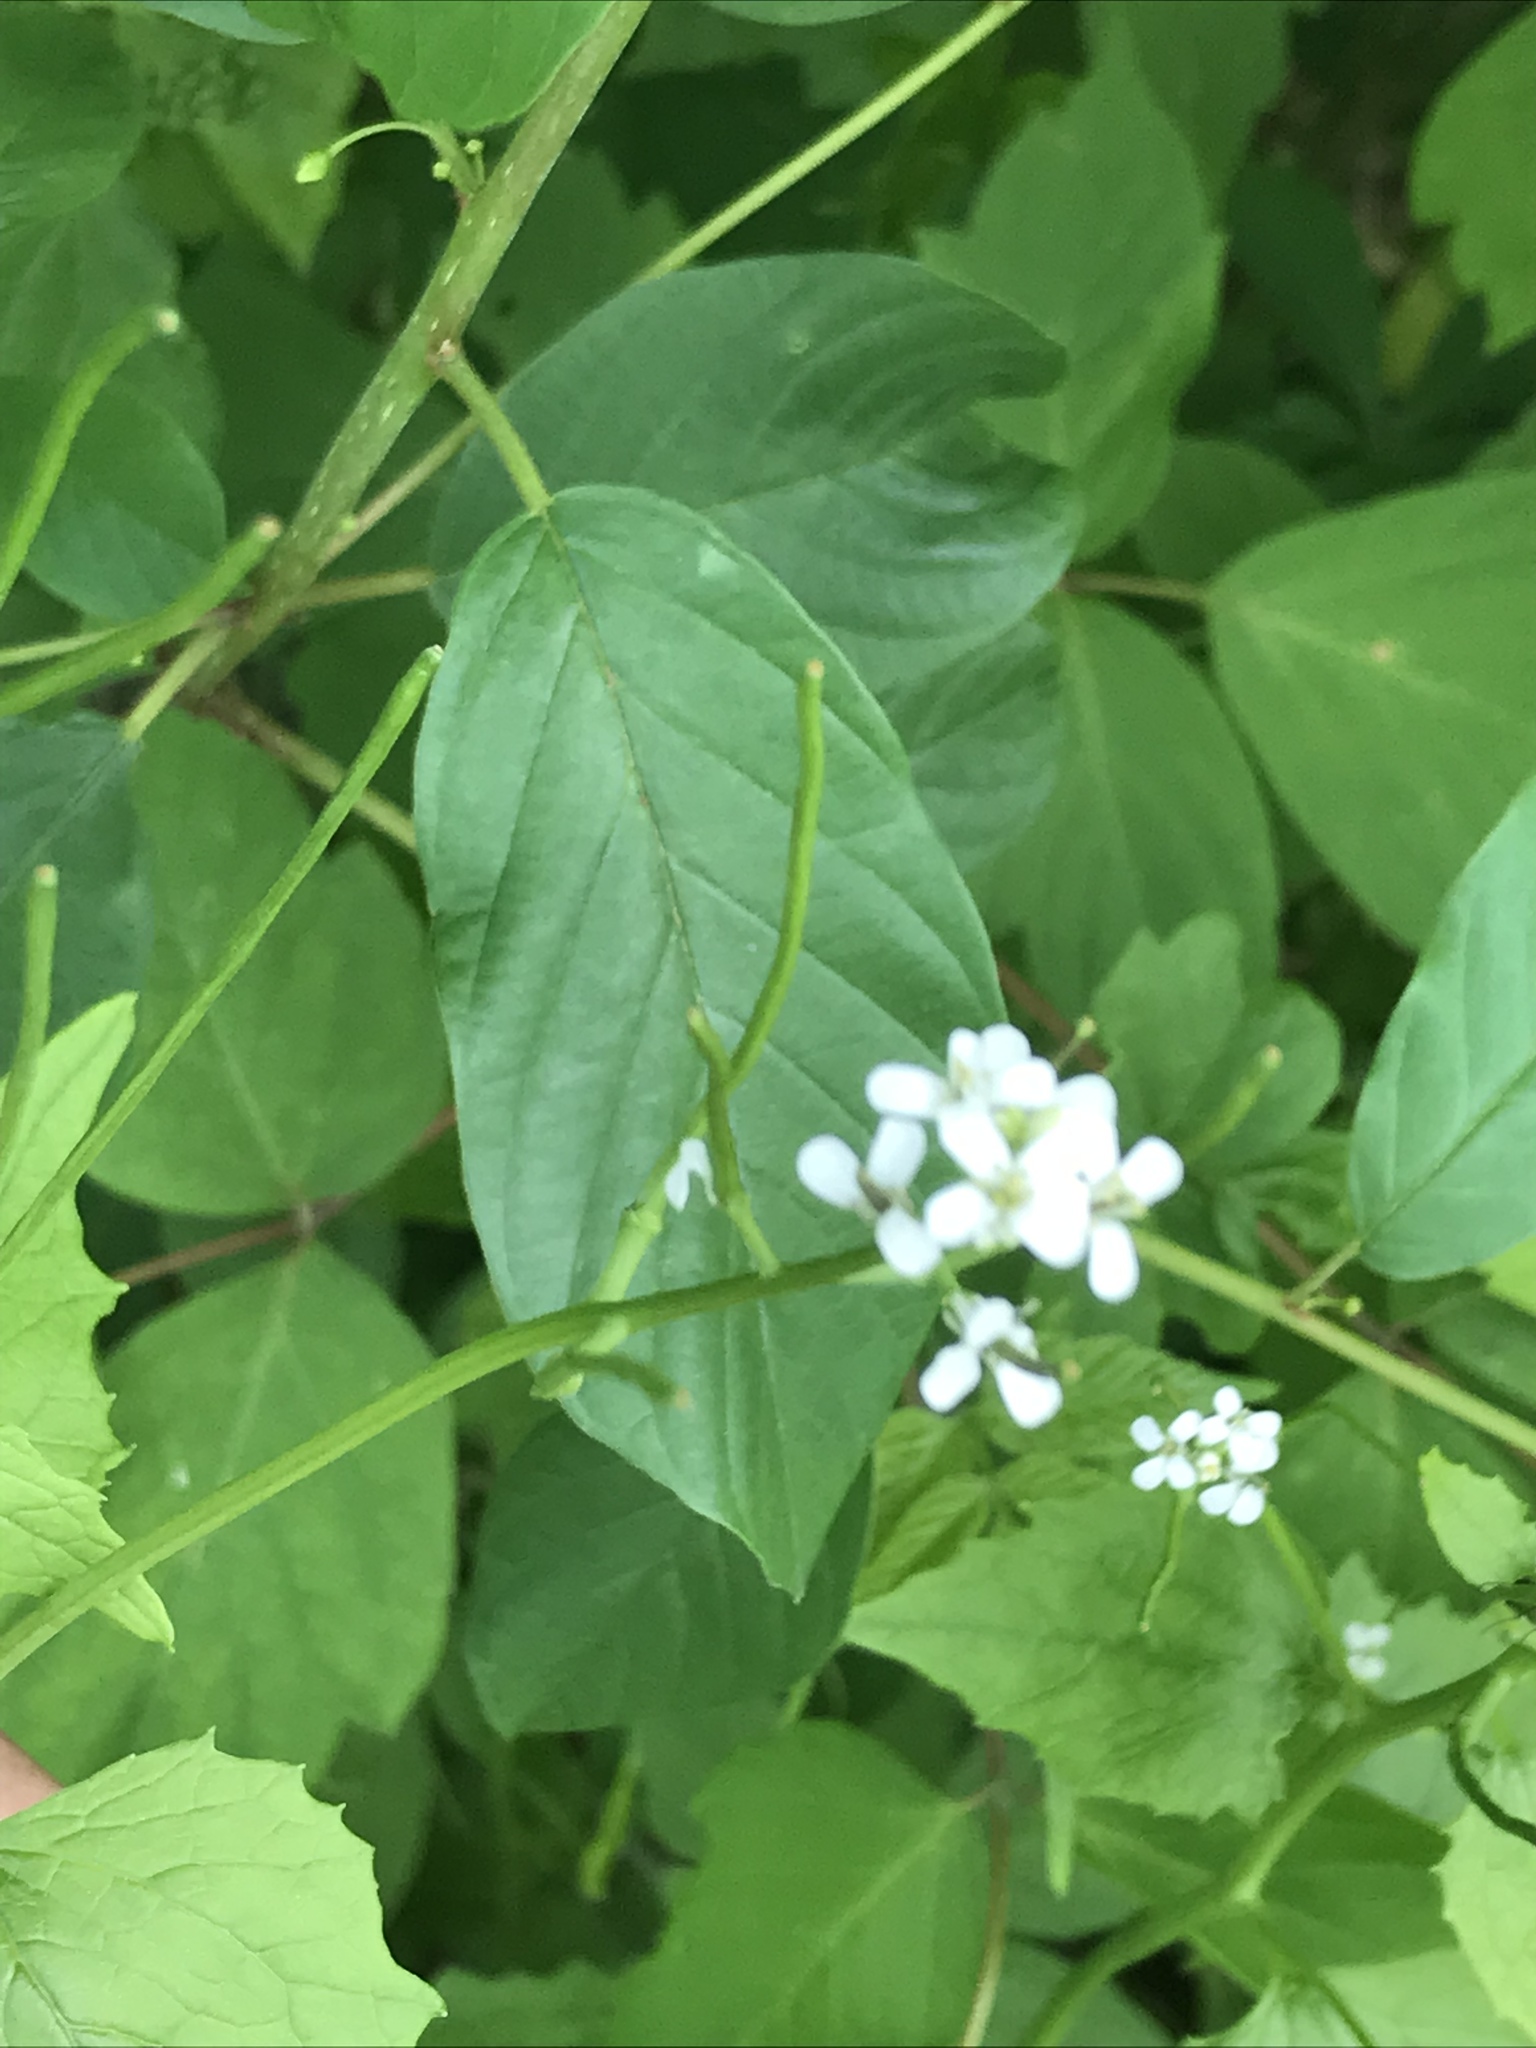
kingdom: Plantae
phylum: Tracheophyta
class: Magnoliopsida
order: Brassicales
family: Brassicaceae
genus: Alliaria
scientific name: Alliaria petiolata
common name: Garlic mustard
